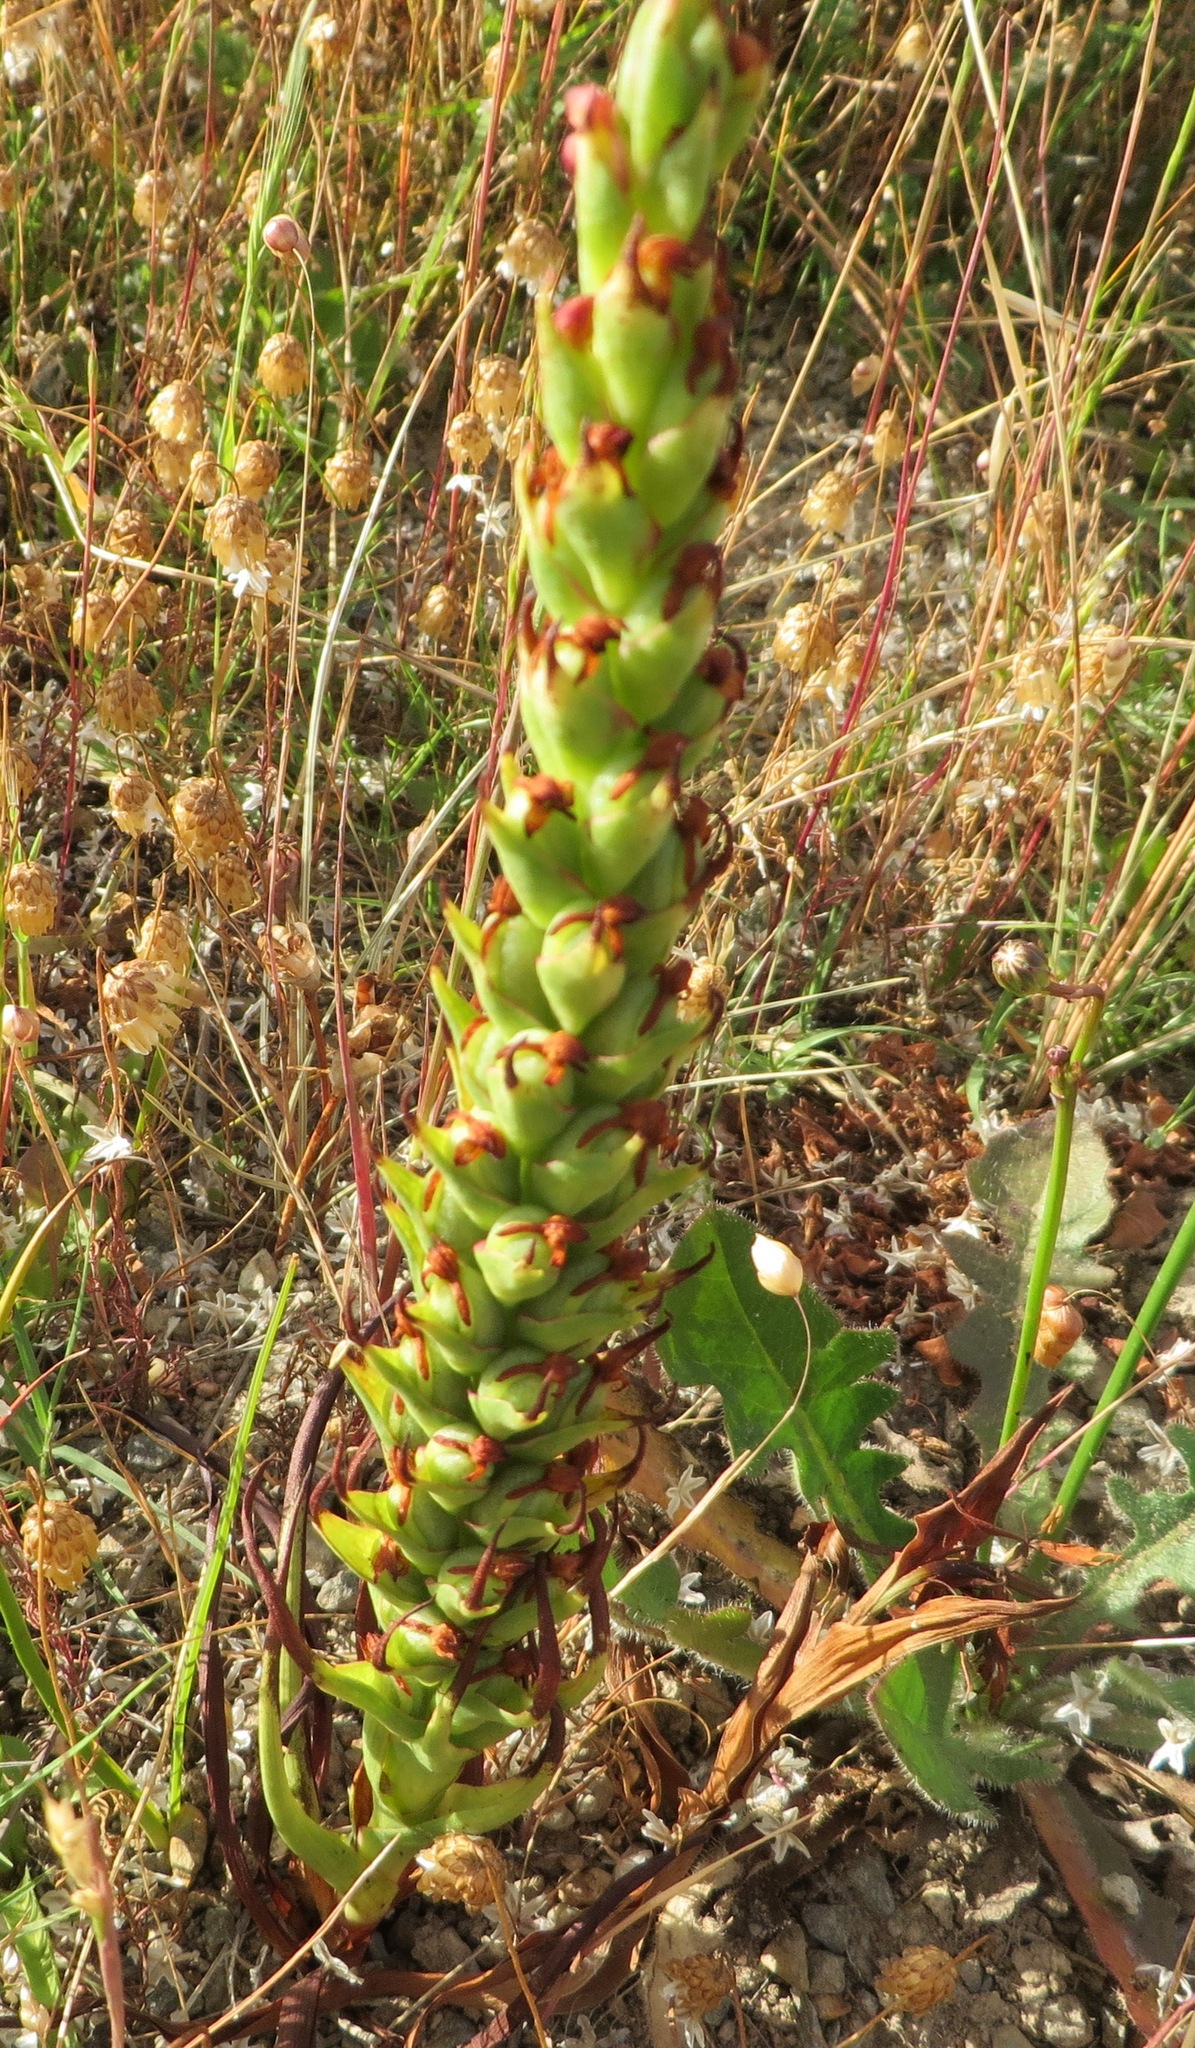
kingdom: Plantae
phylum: Tracheophyta
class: Liliopsida
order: Asparagales
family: Orchidaceae
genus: Disa
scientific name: Disa bracteata
